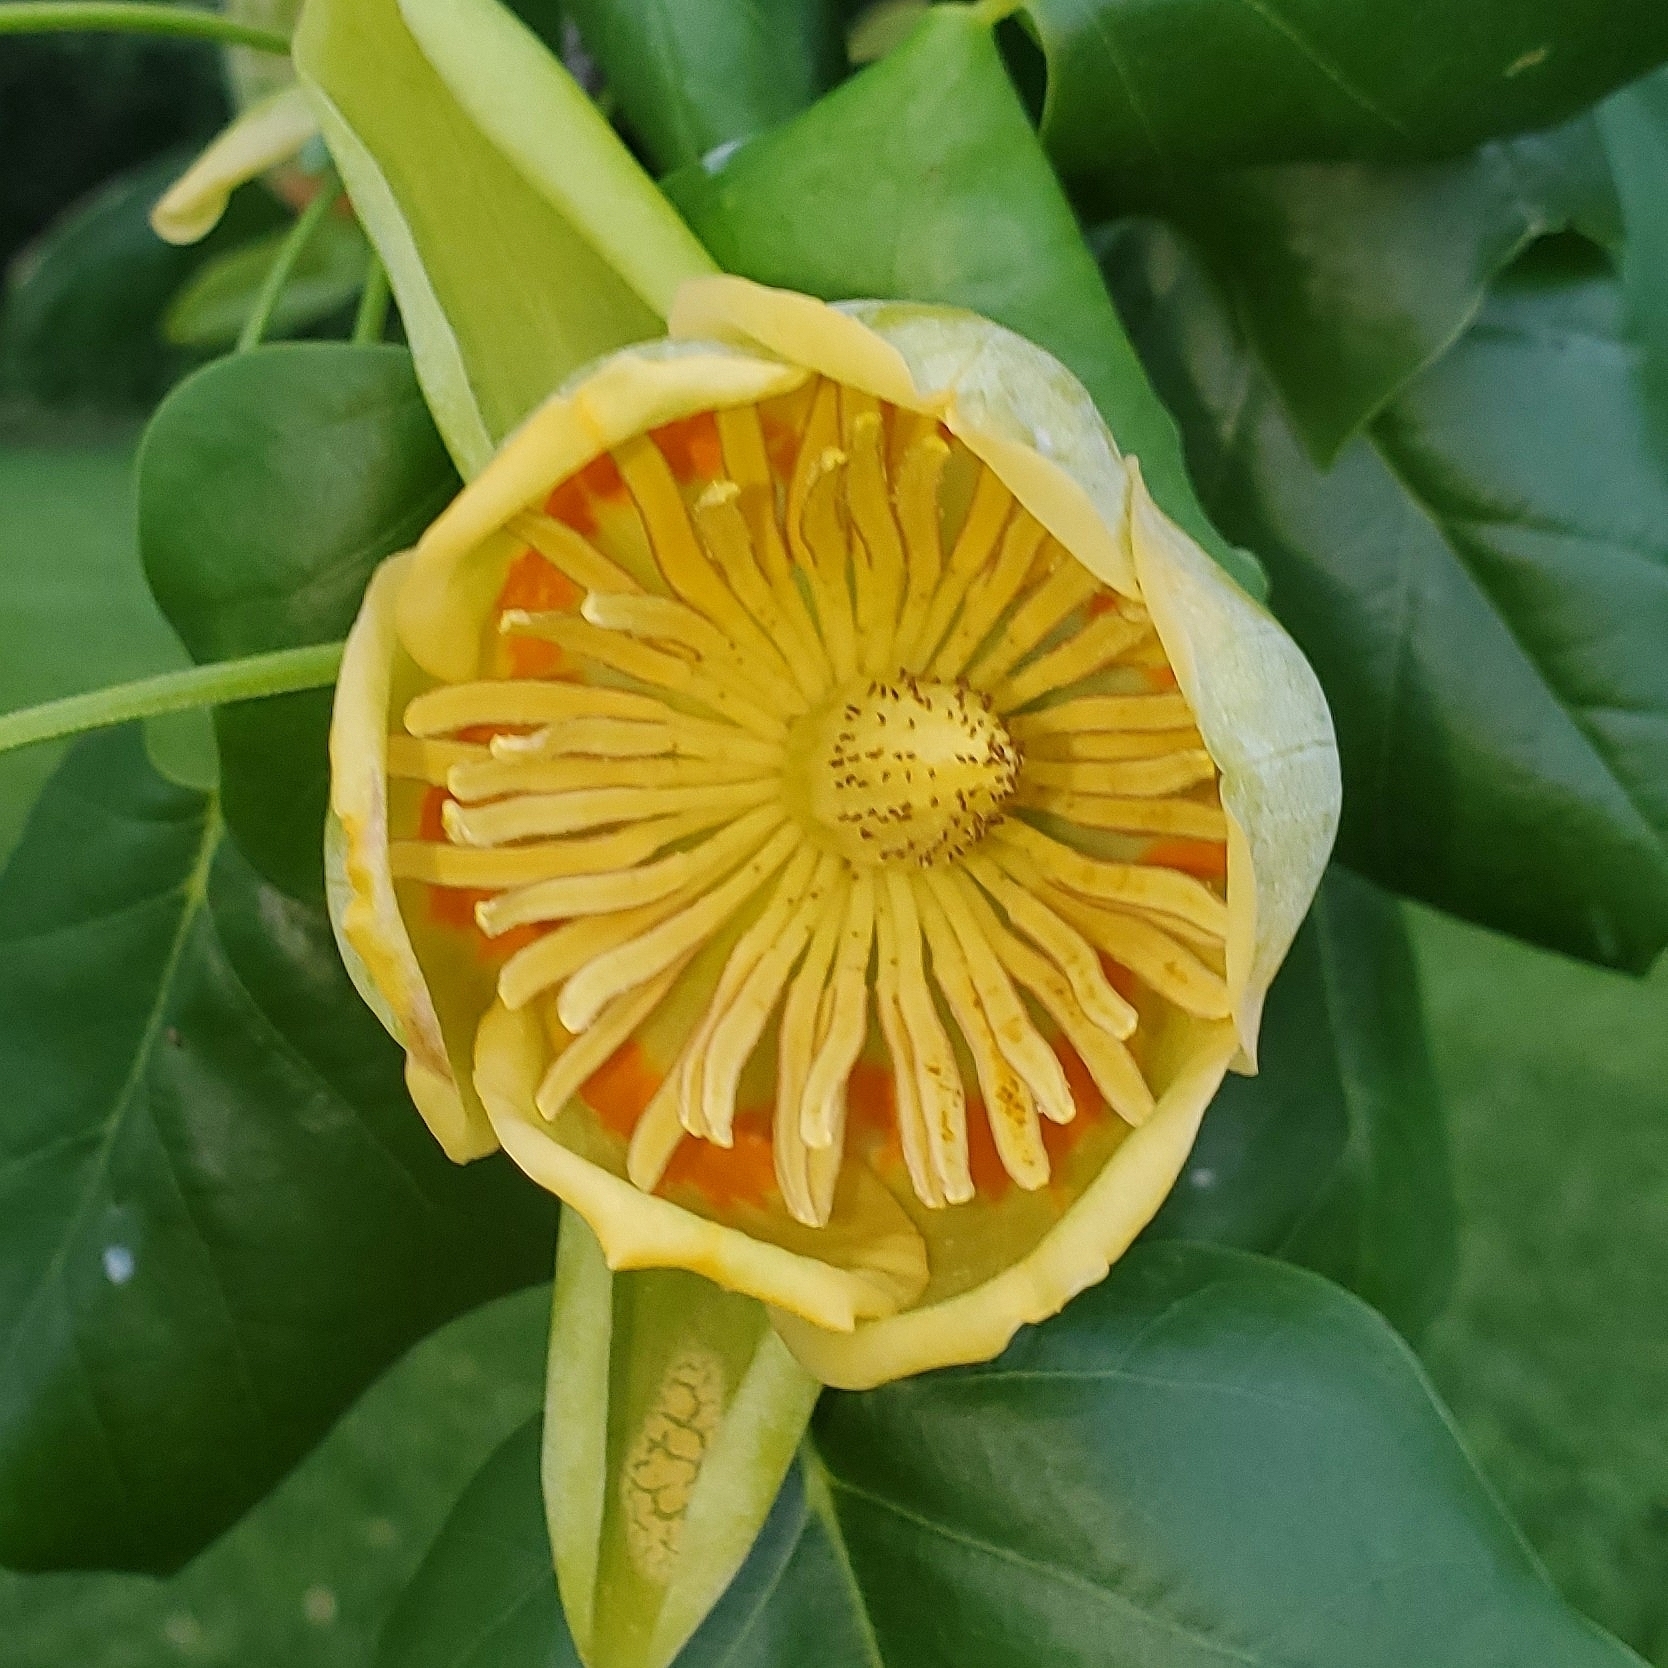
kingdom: Plantae
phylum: Tracheophyta
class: Magnoliopsida
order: Magnoliales
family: Magnoliaceae
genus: Liriodendron
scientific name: Liriodendron tulipifera
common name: Tulip tree
